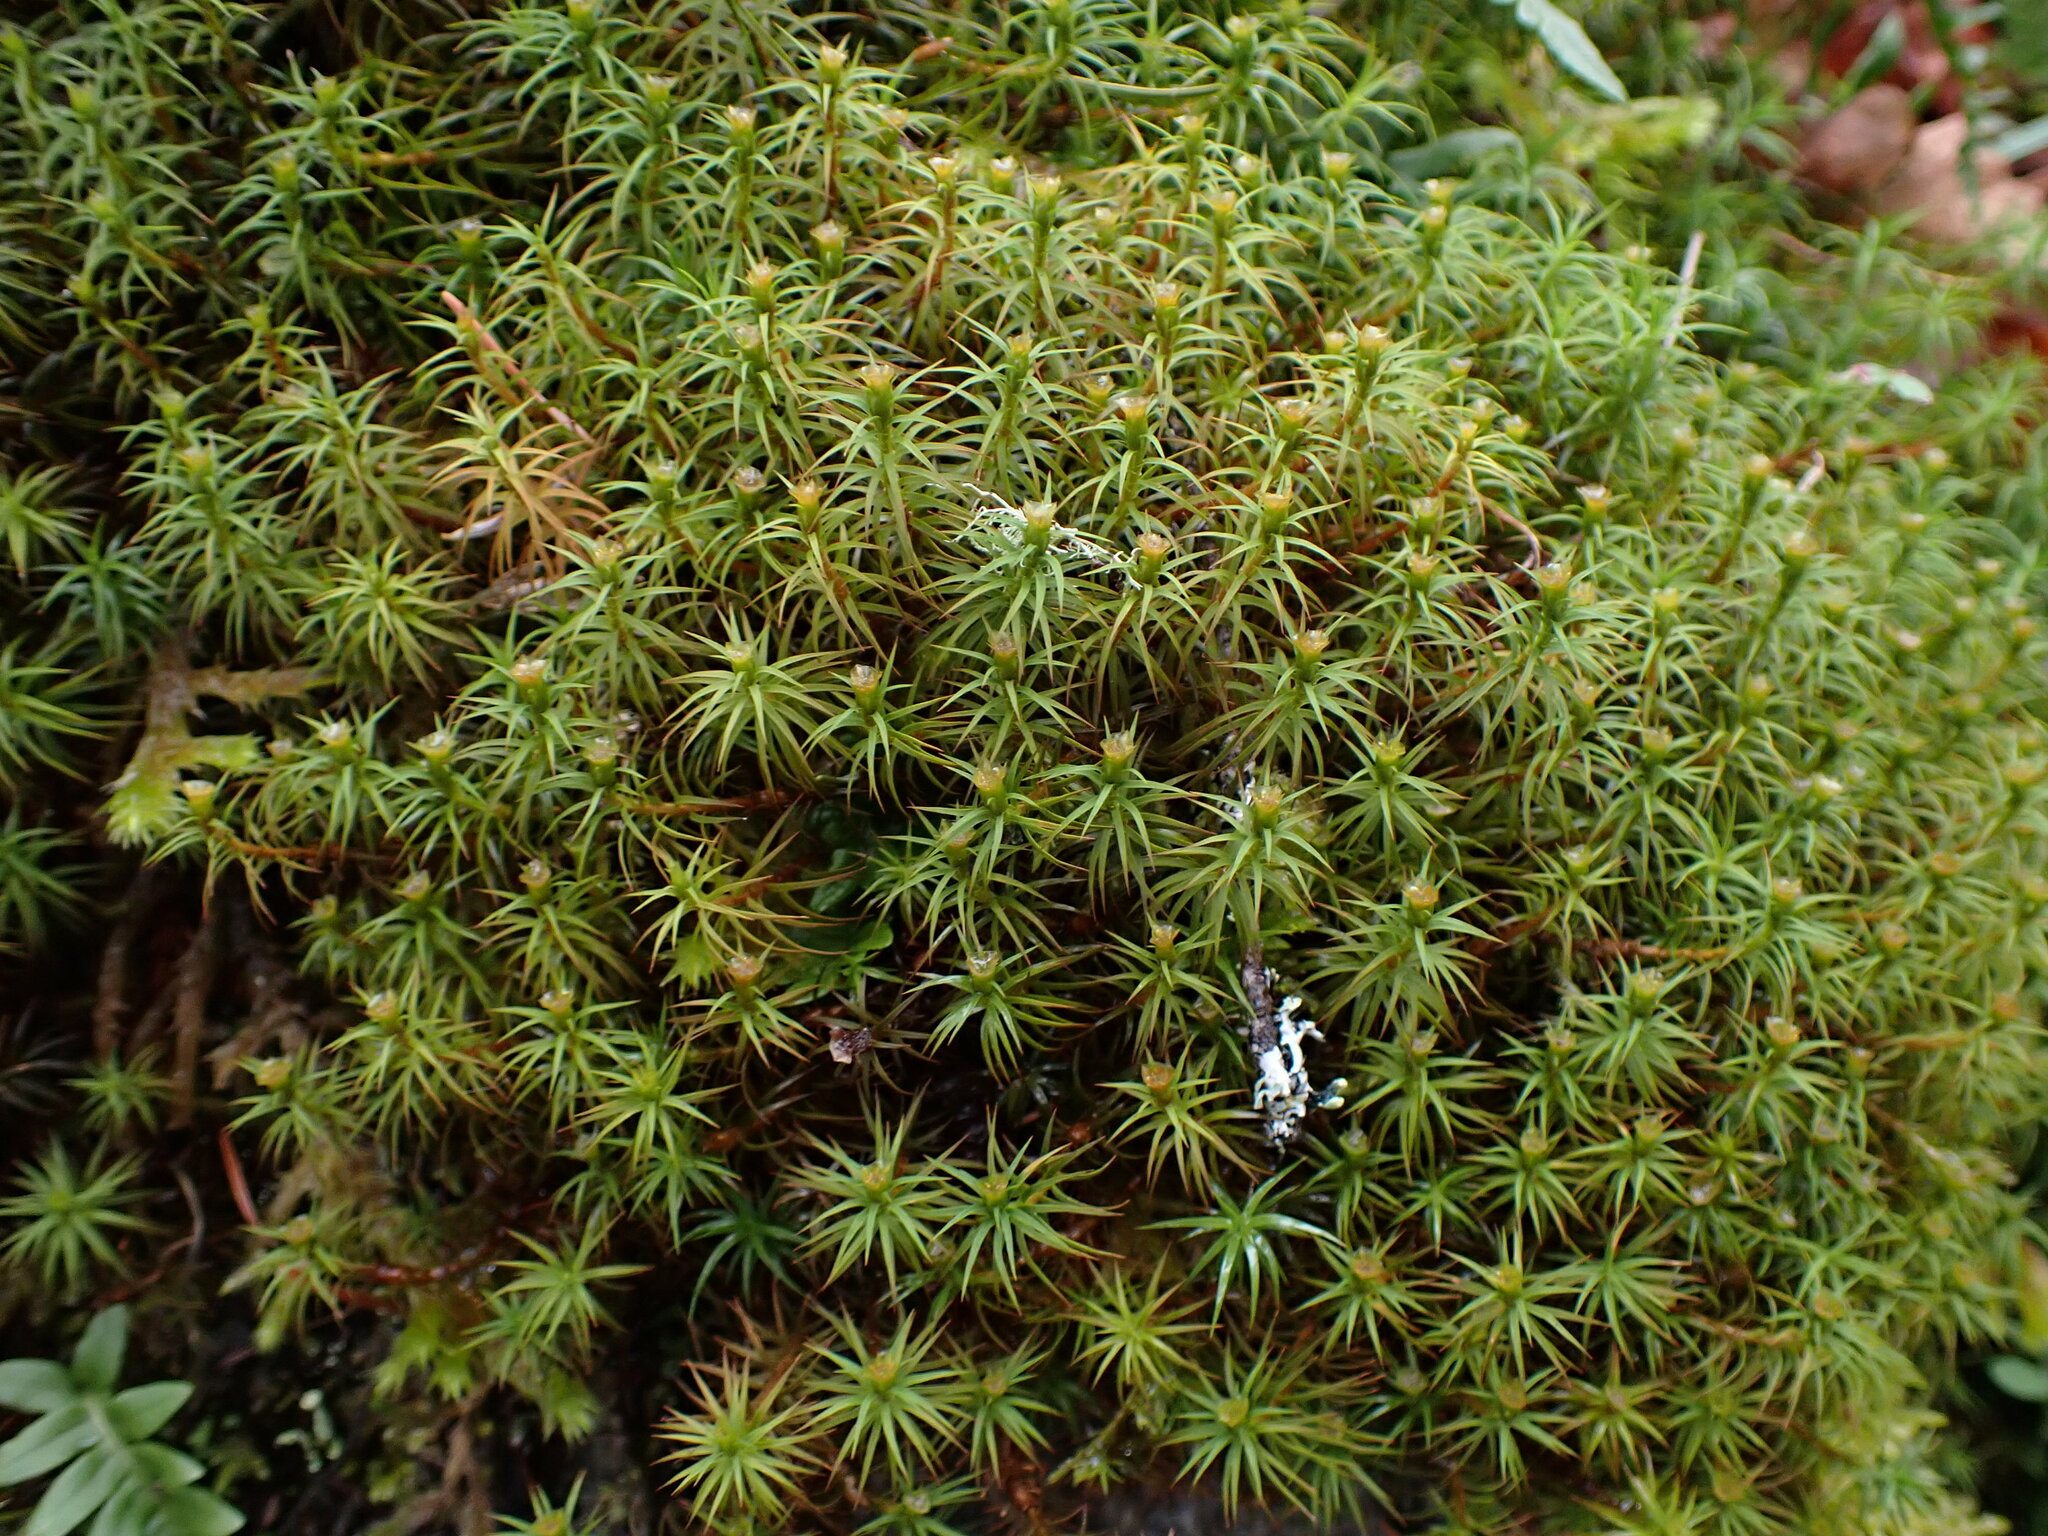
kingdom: Plantae
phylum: Bryophyta
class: Polytrichopsida
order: Polytrichales
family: Polytrichaceae
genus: Polytrichum
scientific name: Polytrichum commune
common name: Common haircap
